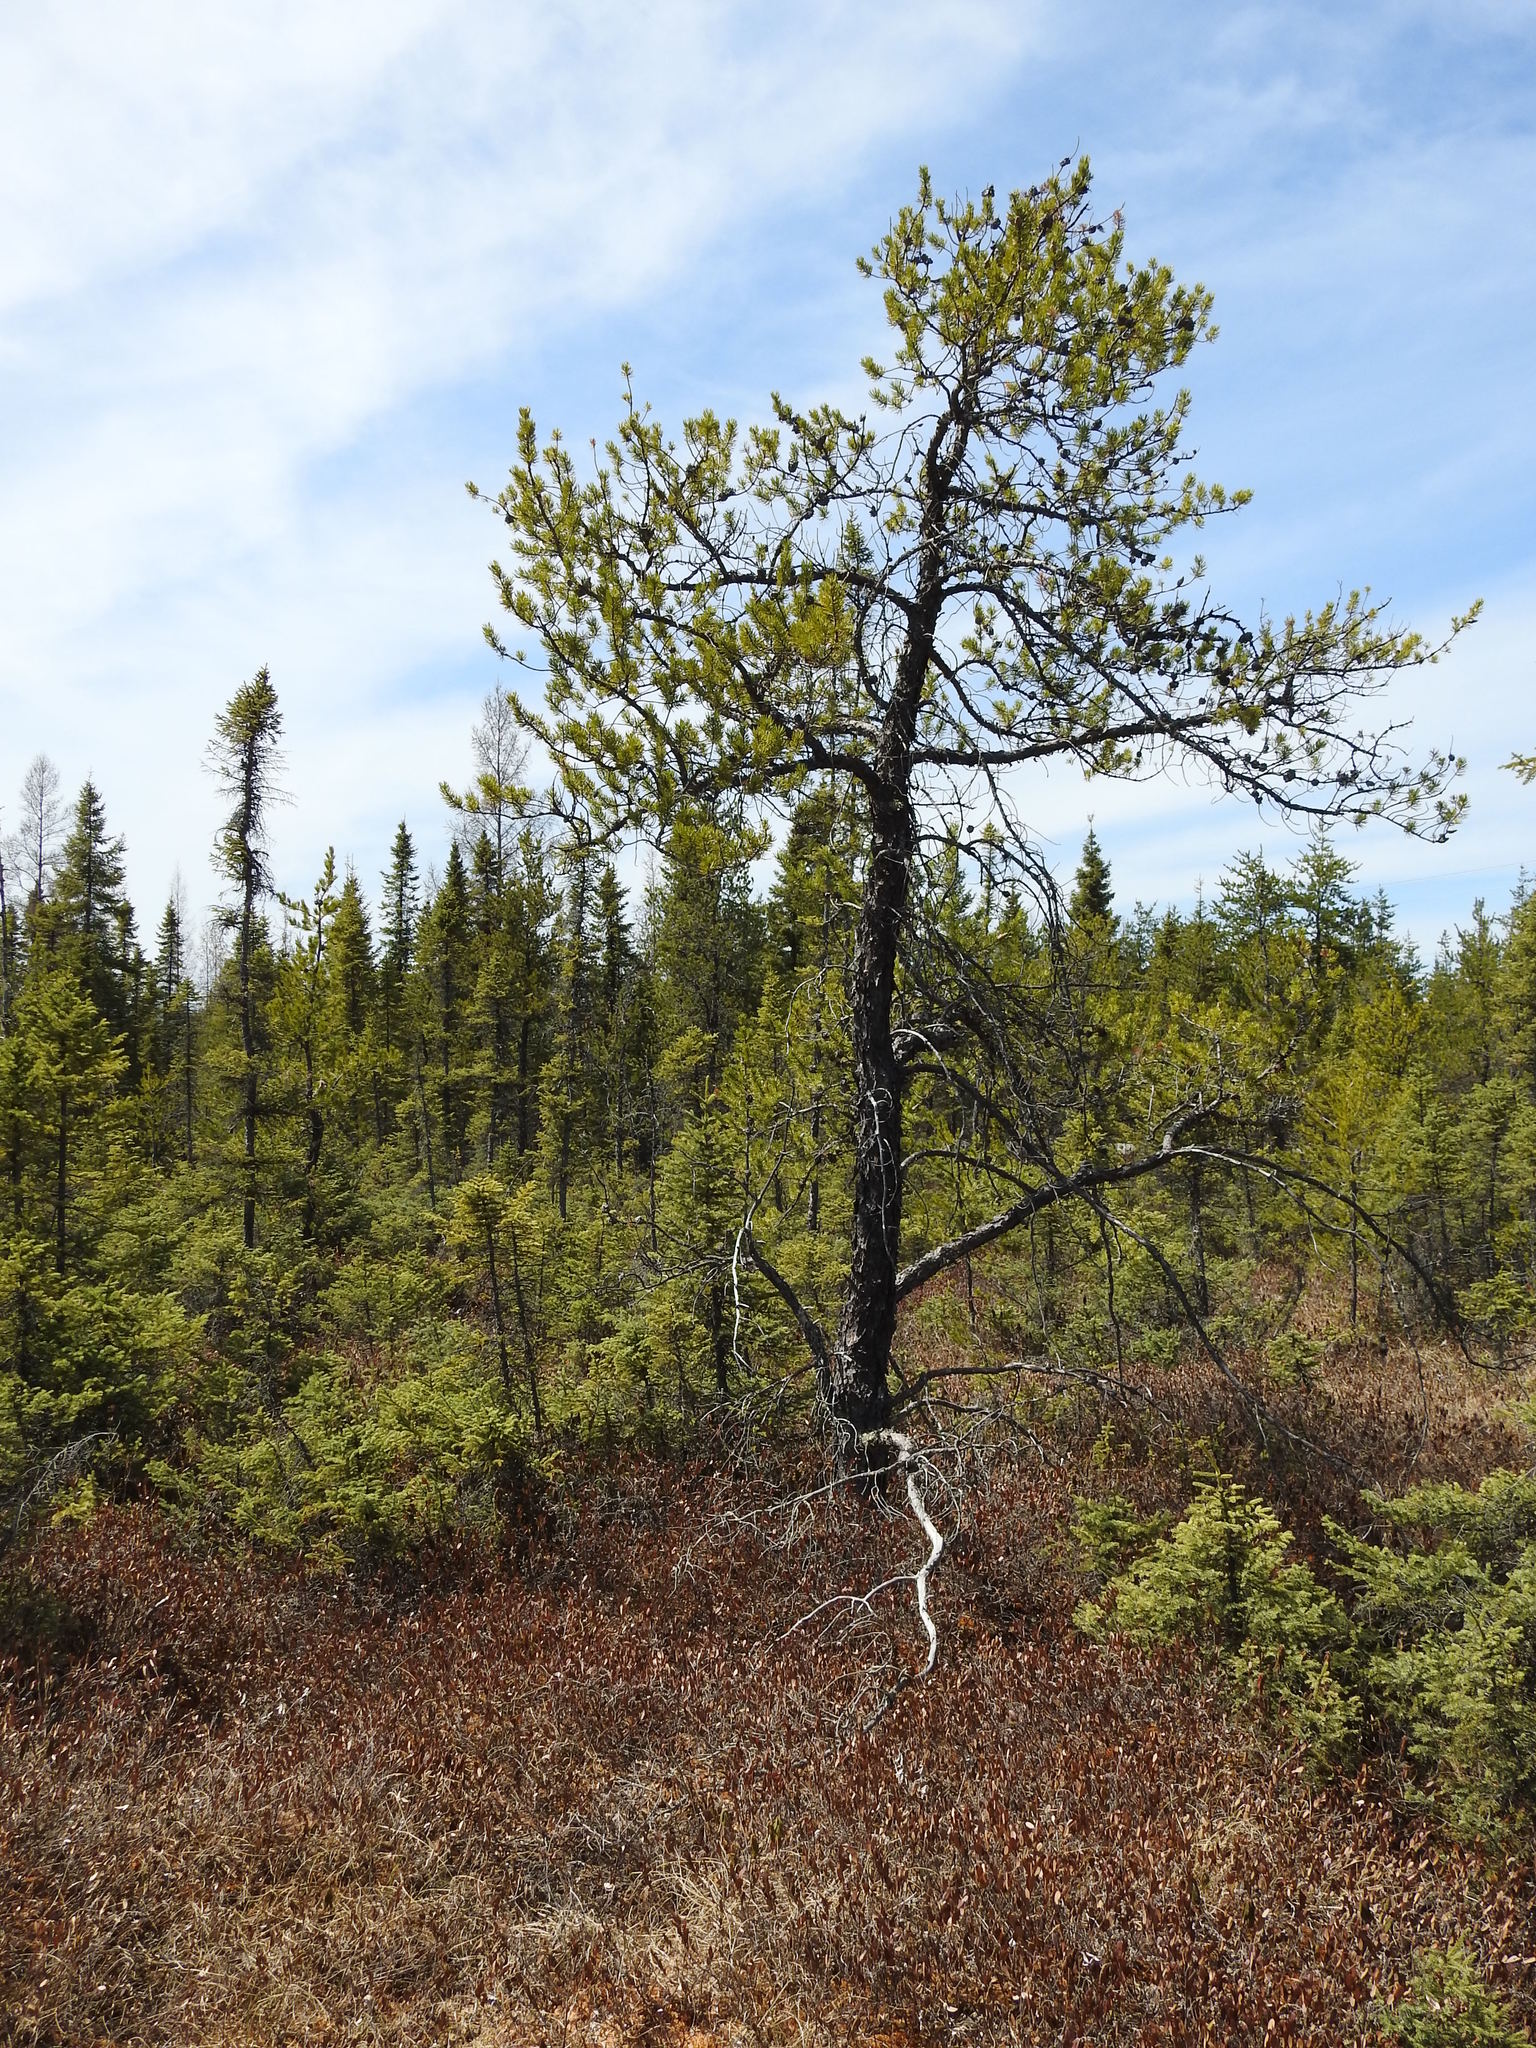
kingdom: Plantae
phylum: Tracheophyta
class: Pinopsida
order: Pinales
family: Pinaceae
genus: Pinus
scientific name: Pinus banksiana
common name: Jack pine
